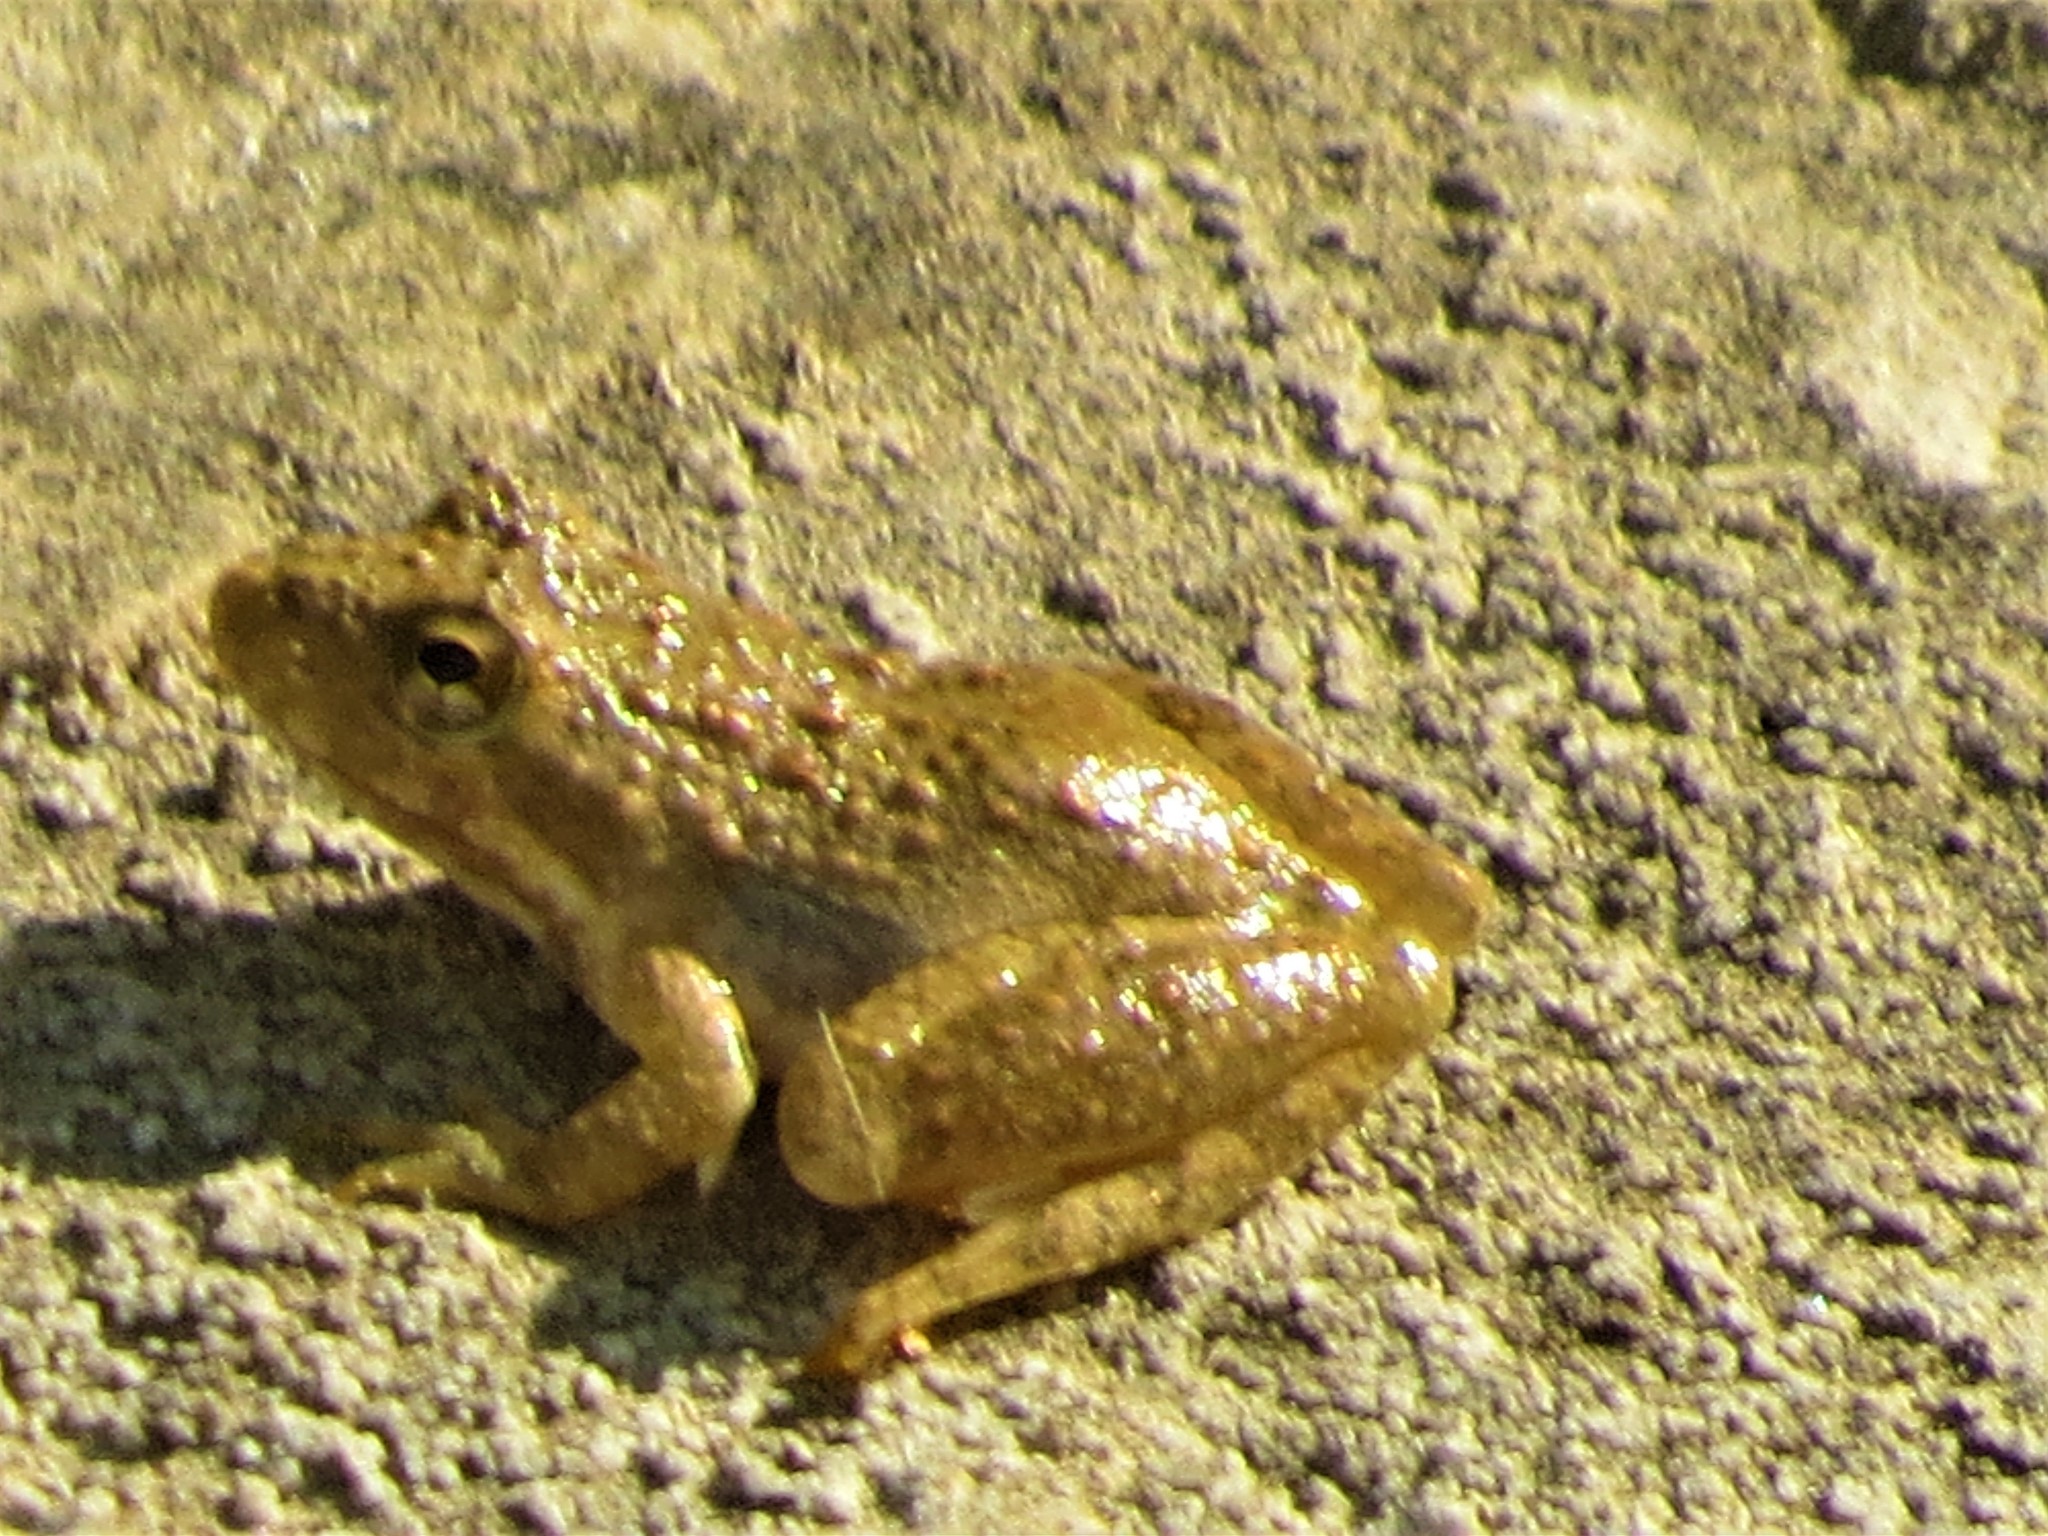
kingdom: Animalia
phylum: Chordata
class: Amphibia
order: Anura
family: Hylidae
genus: Acris
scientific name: Acris blanchardi
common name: Blanchard's cricket frog
